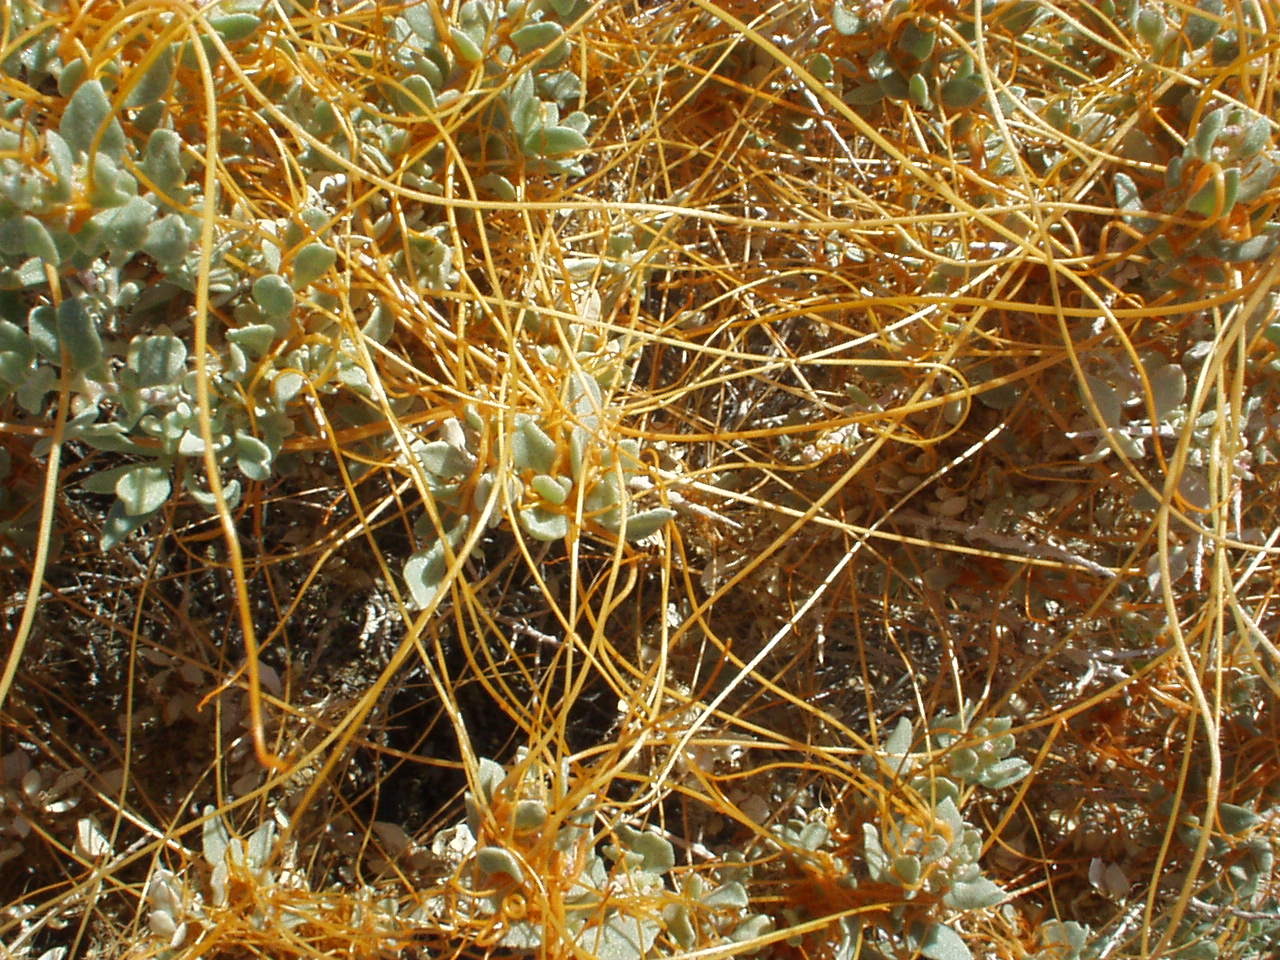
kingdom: Plantae
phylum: Tracheophyta
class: Magnoliopsida
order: Solanales
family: Convolvulaceae
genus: Cuscuta
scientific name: Cuscuta
